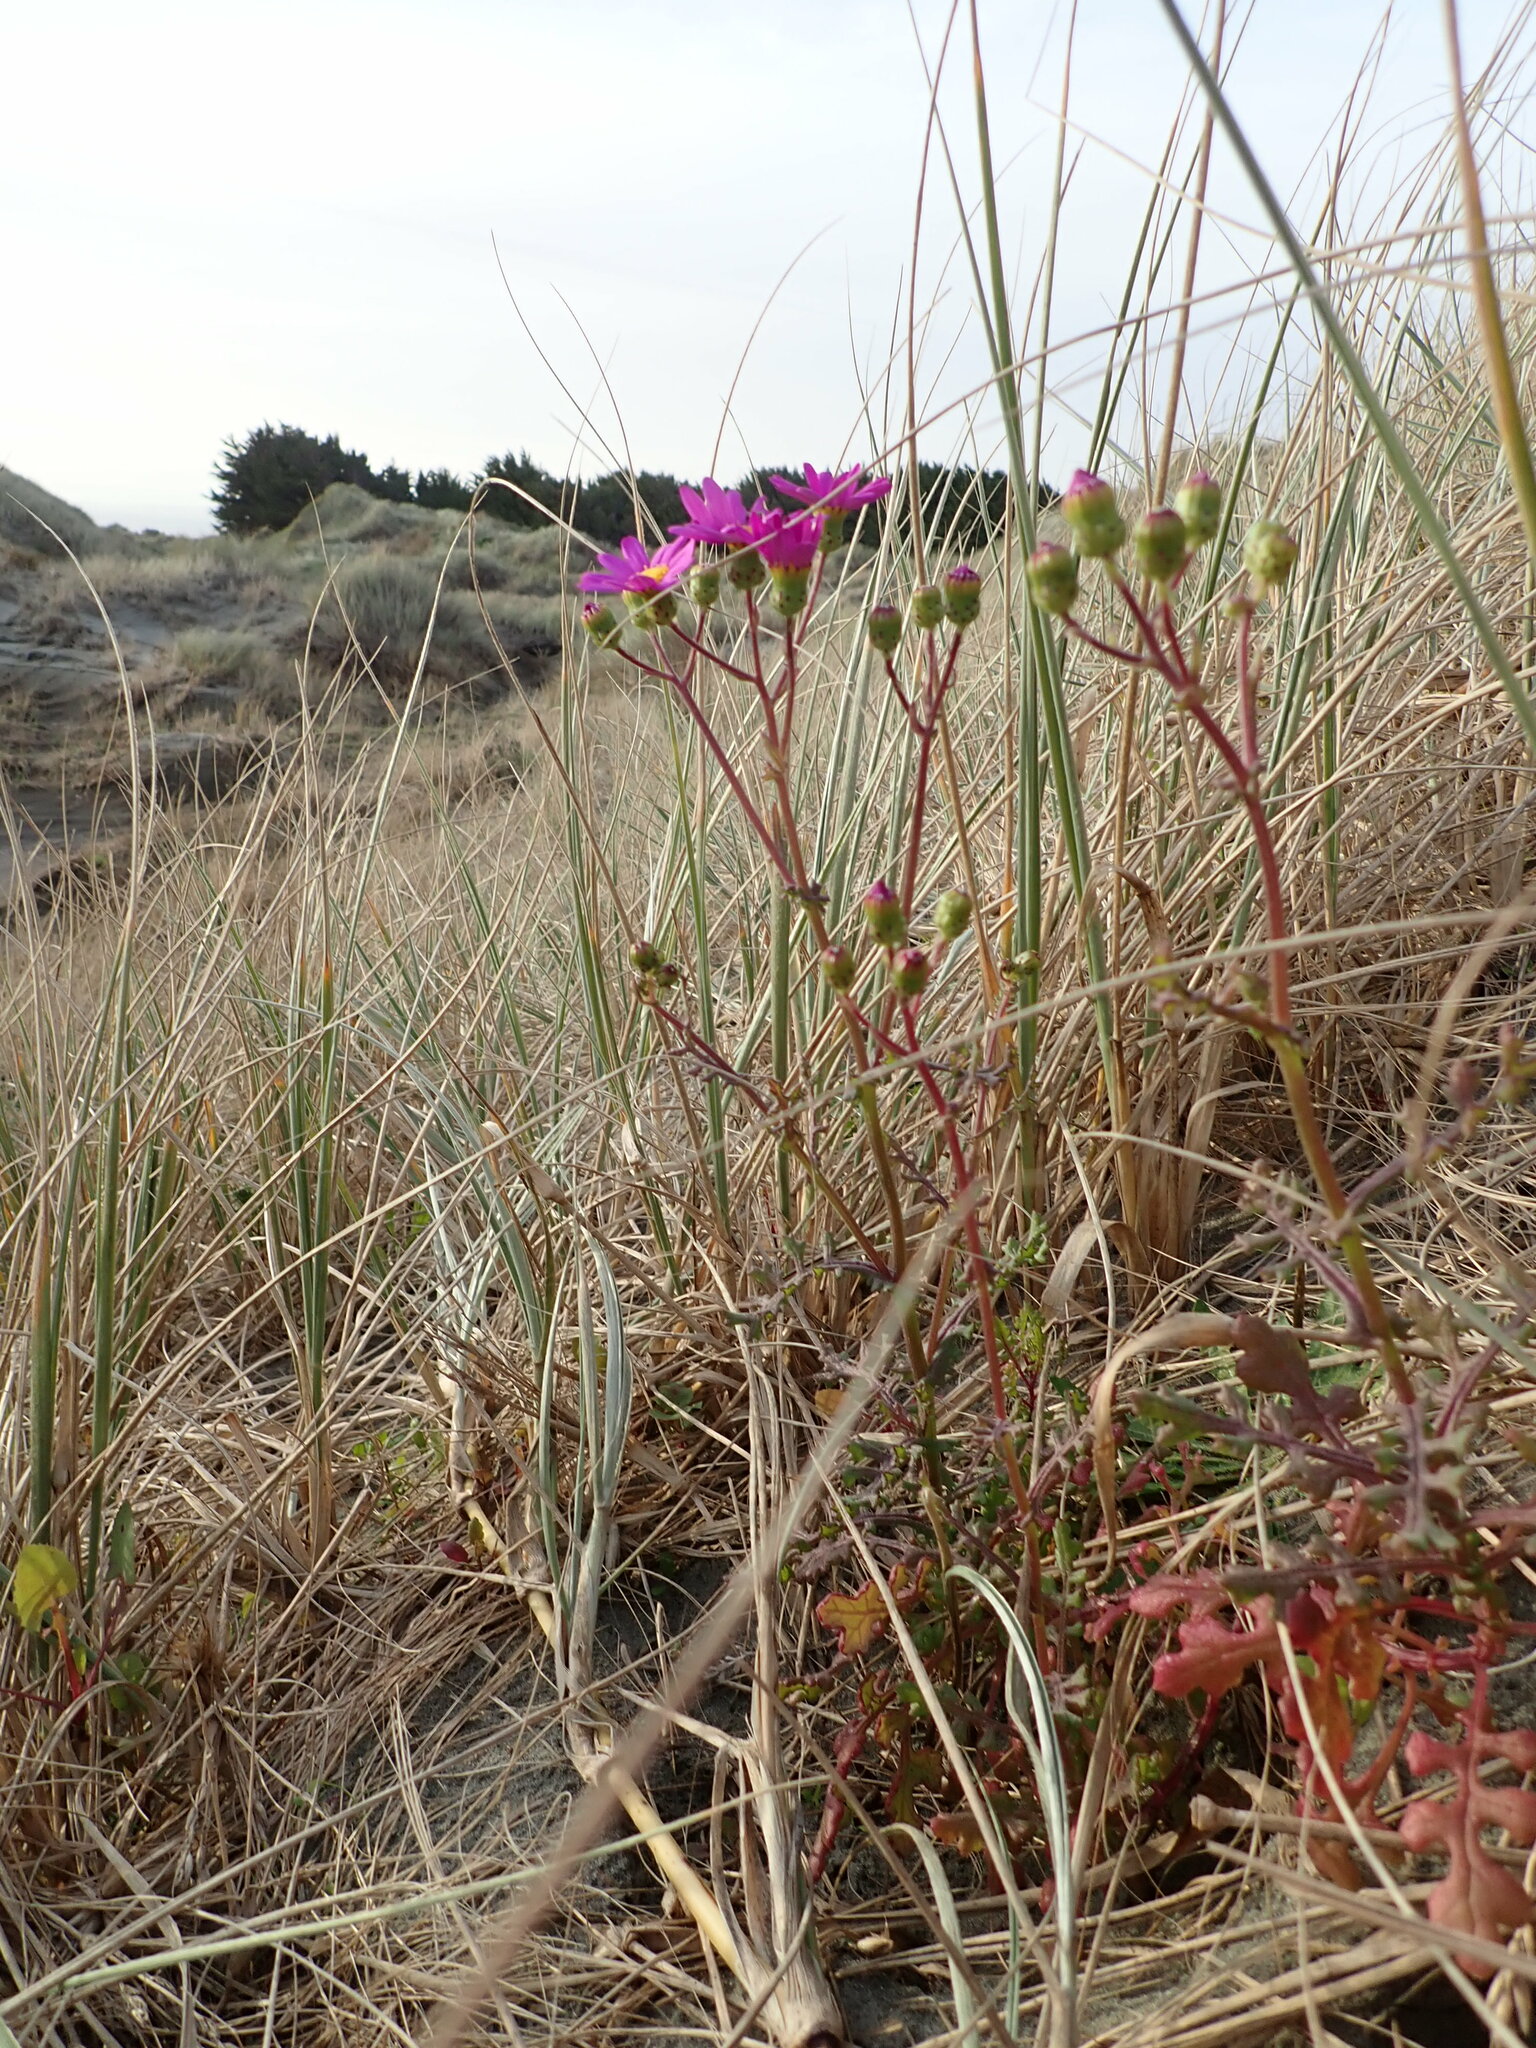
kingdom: Plantae
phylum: Tracheophyta
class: Magnoliopsida
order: Asterales
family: Asteraceae
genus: Senecio
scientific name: Senecio elegans
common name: Purple groundsel
